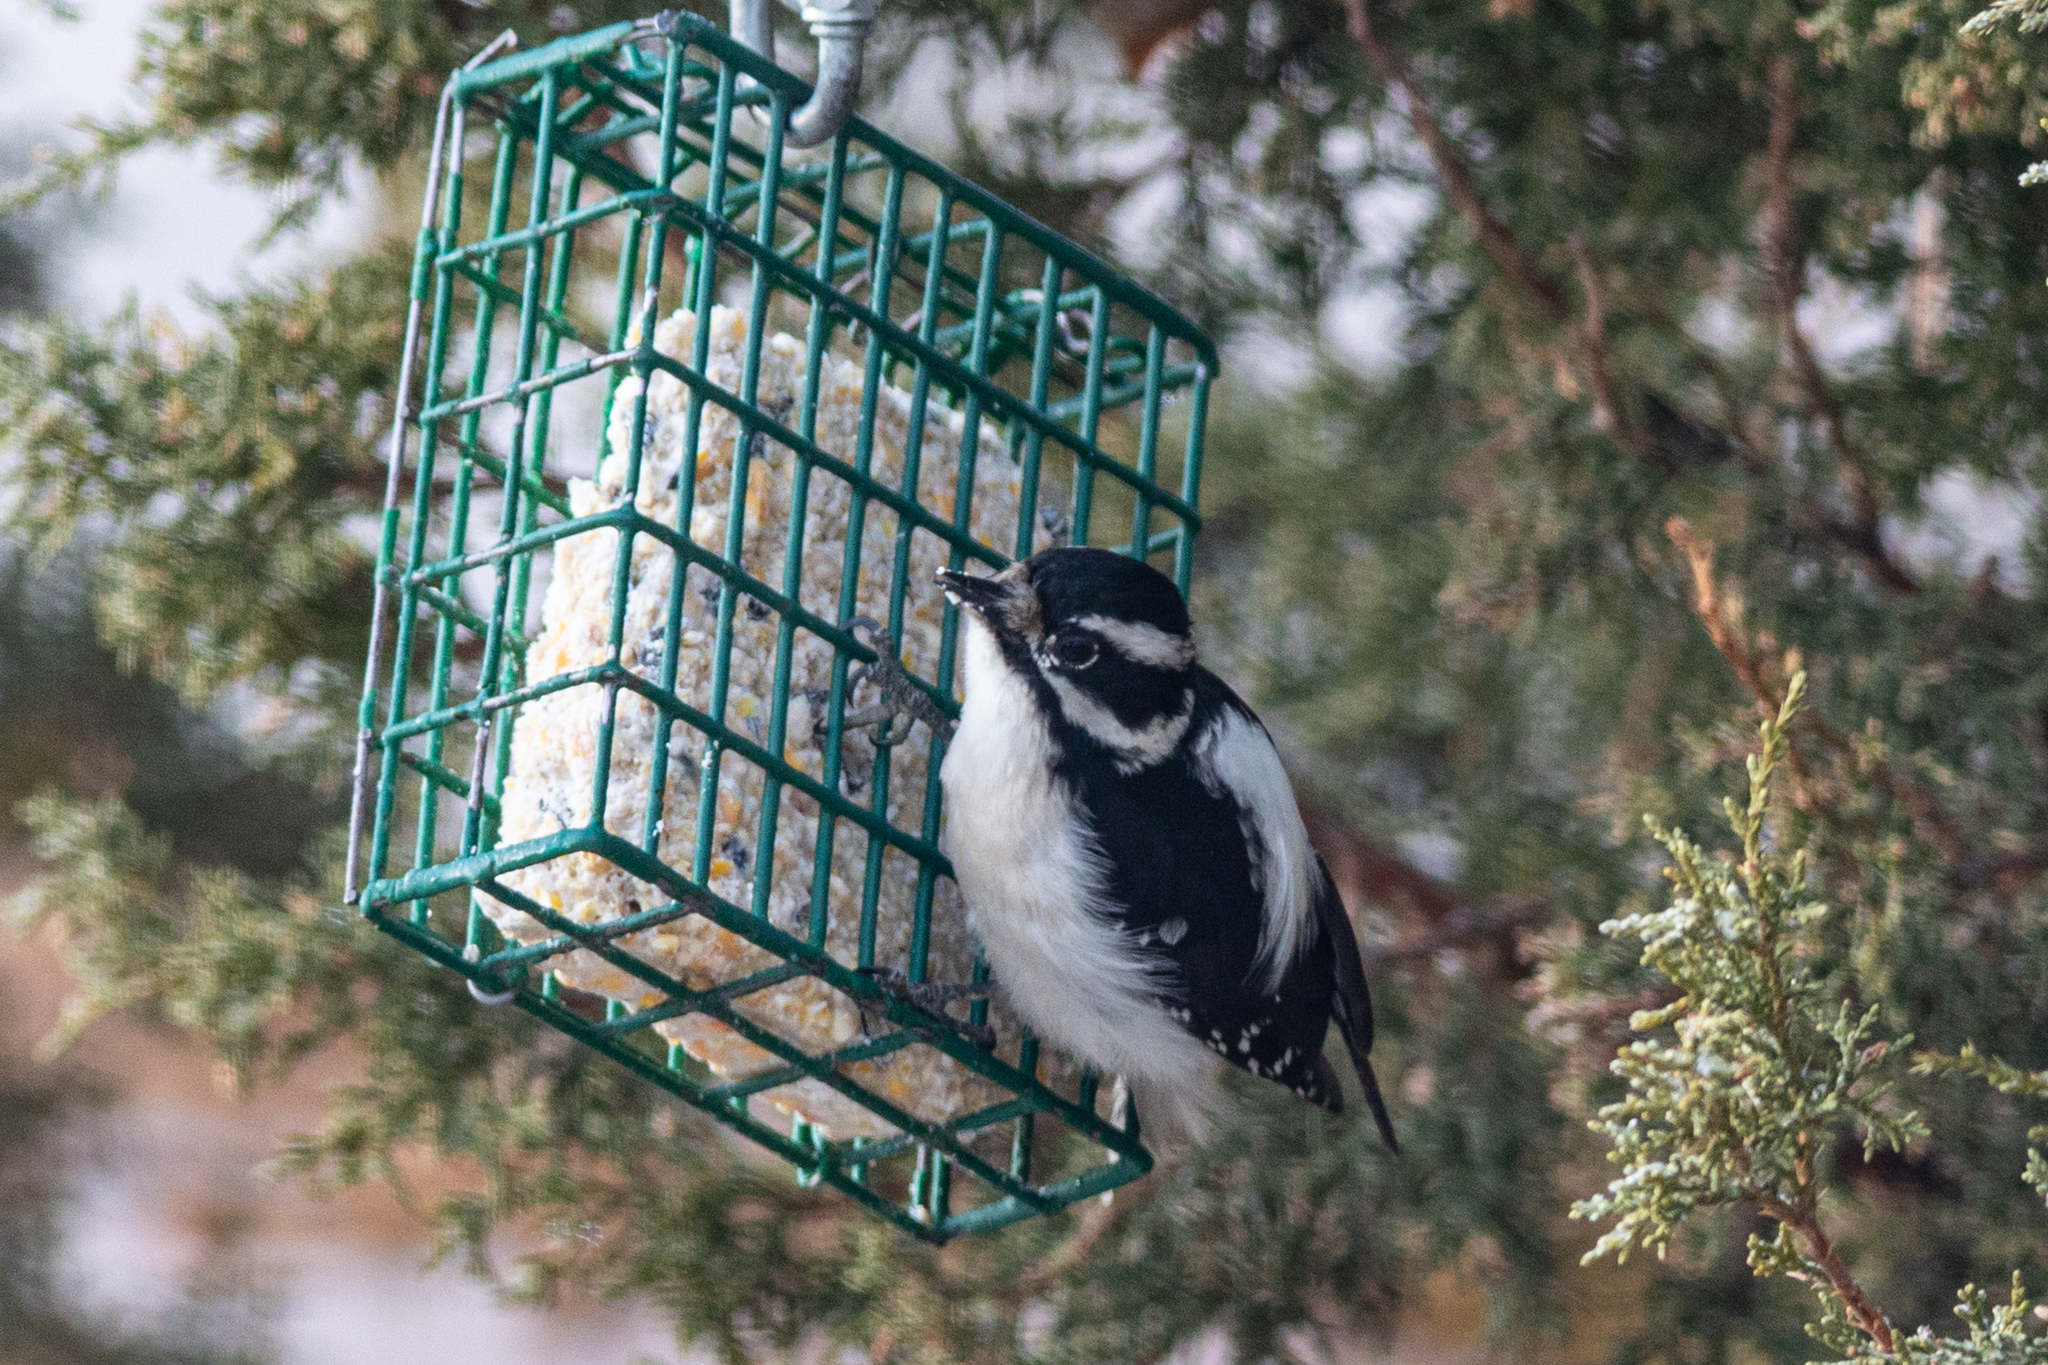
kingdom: Animalia
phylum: Chordata
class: Aves
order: Piciformes
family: Picidae
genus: Dryobates
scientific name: Dryobates pubescens
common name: Downy woodpecker
